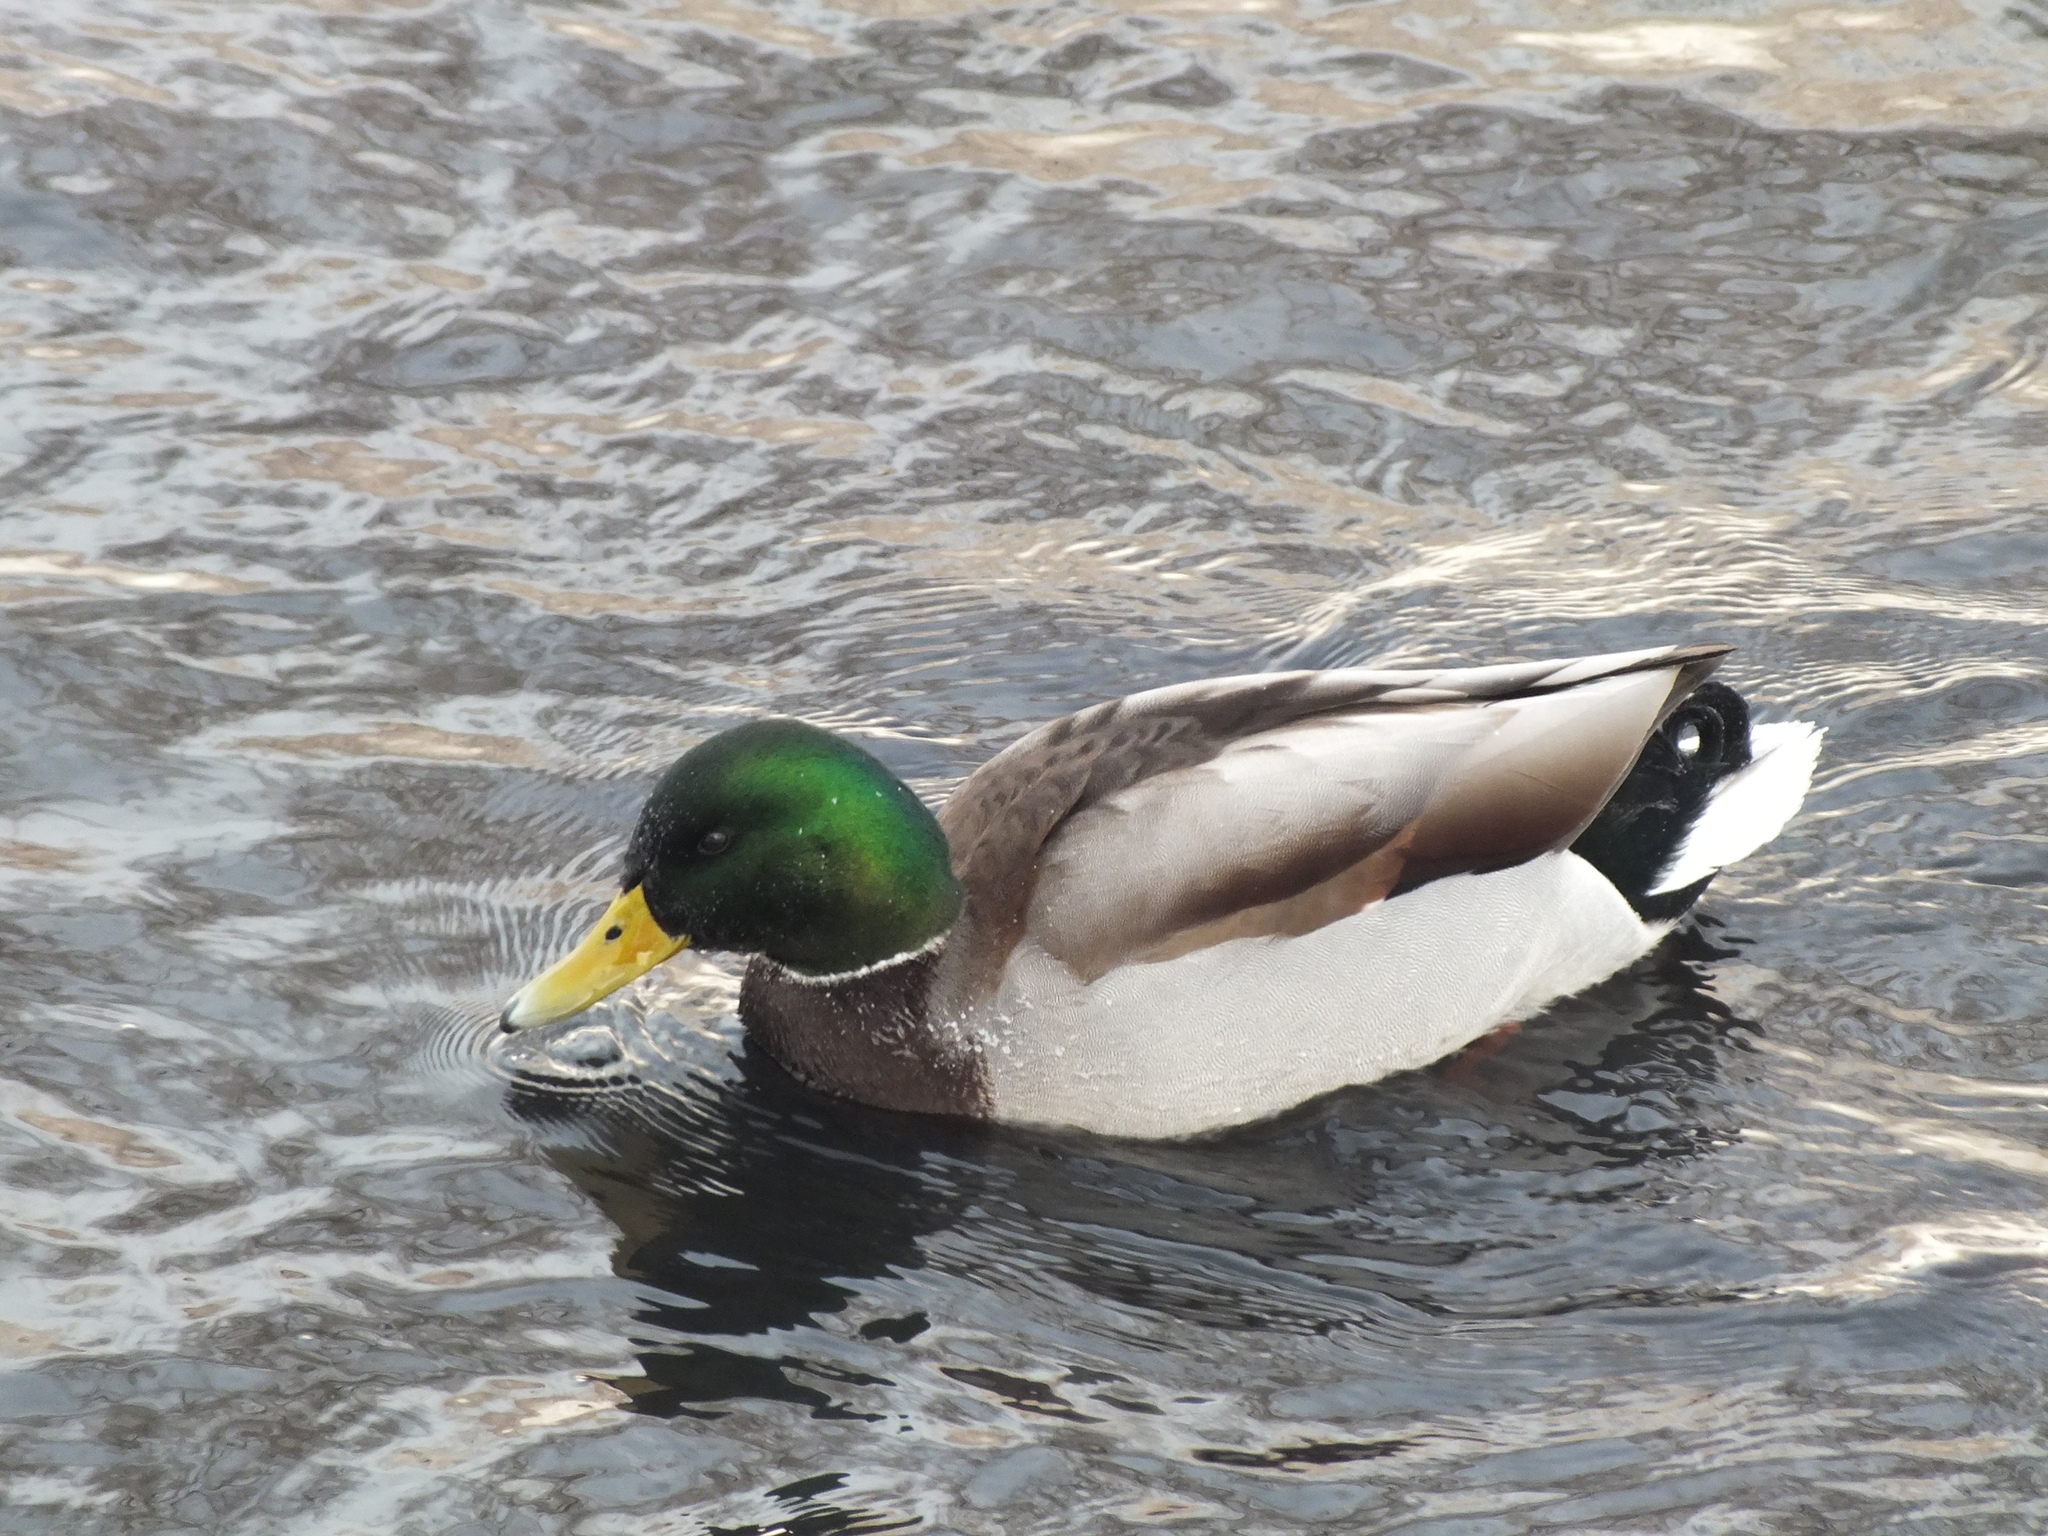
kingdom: Animalia
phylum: Chordata
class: Aves
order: Anseriformes
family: Anatidae
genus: Anas
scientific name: Anas platyrhynchos
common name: Mallard
